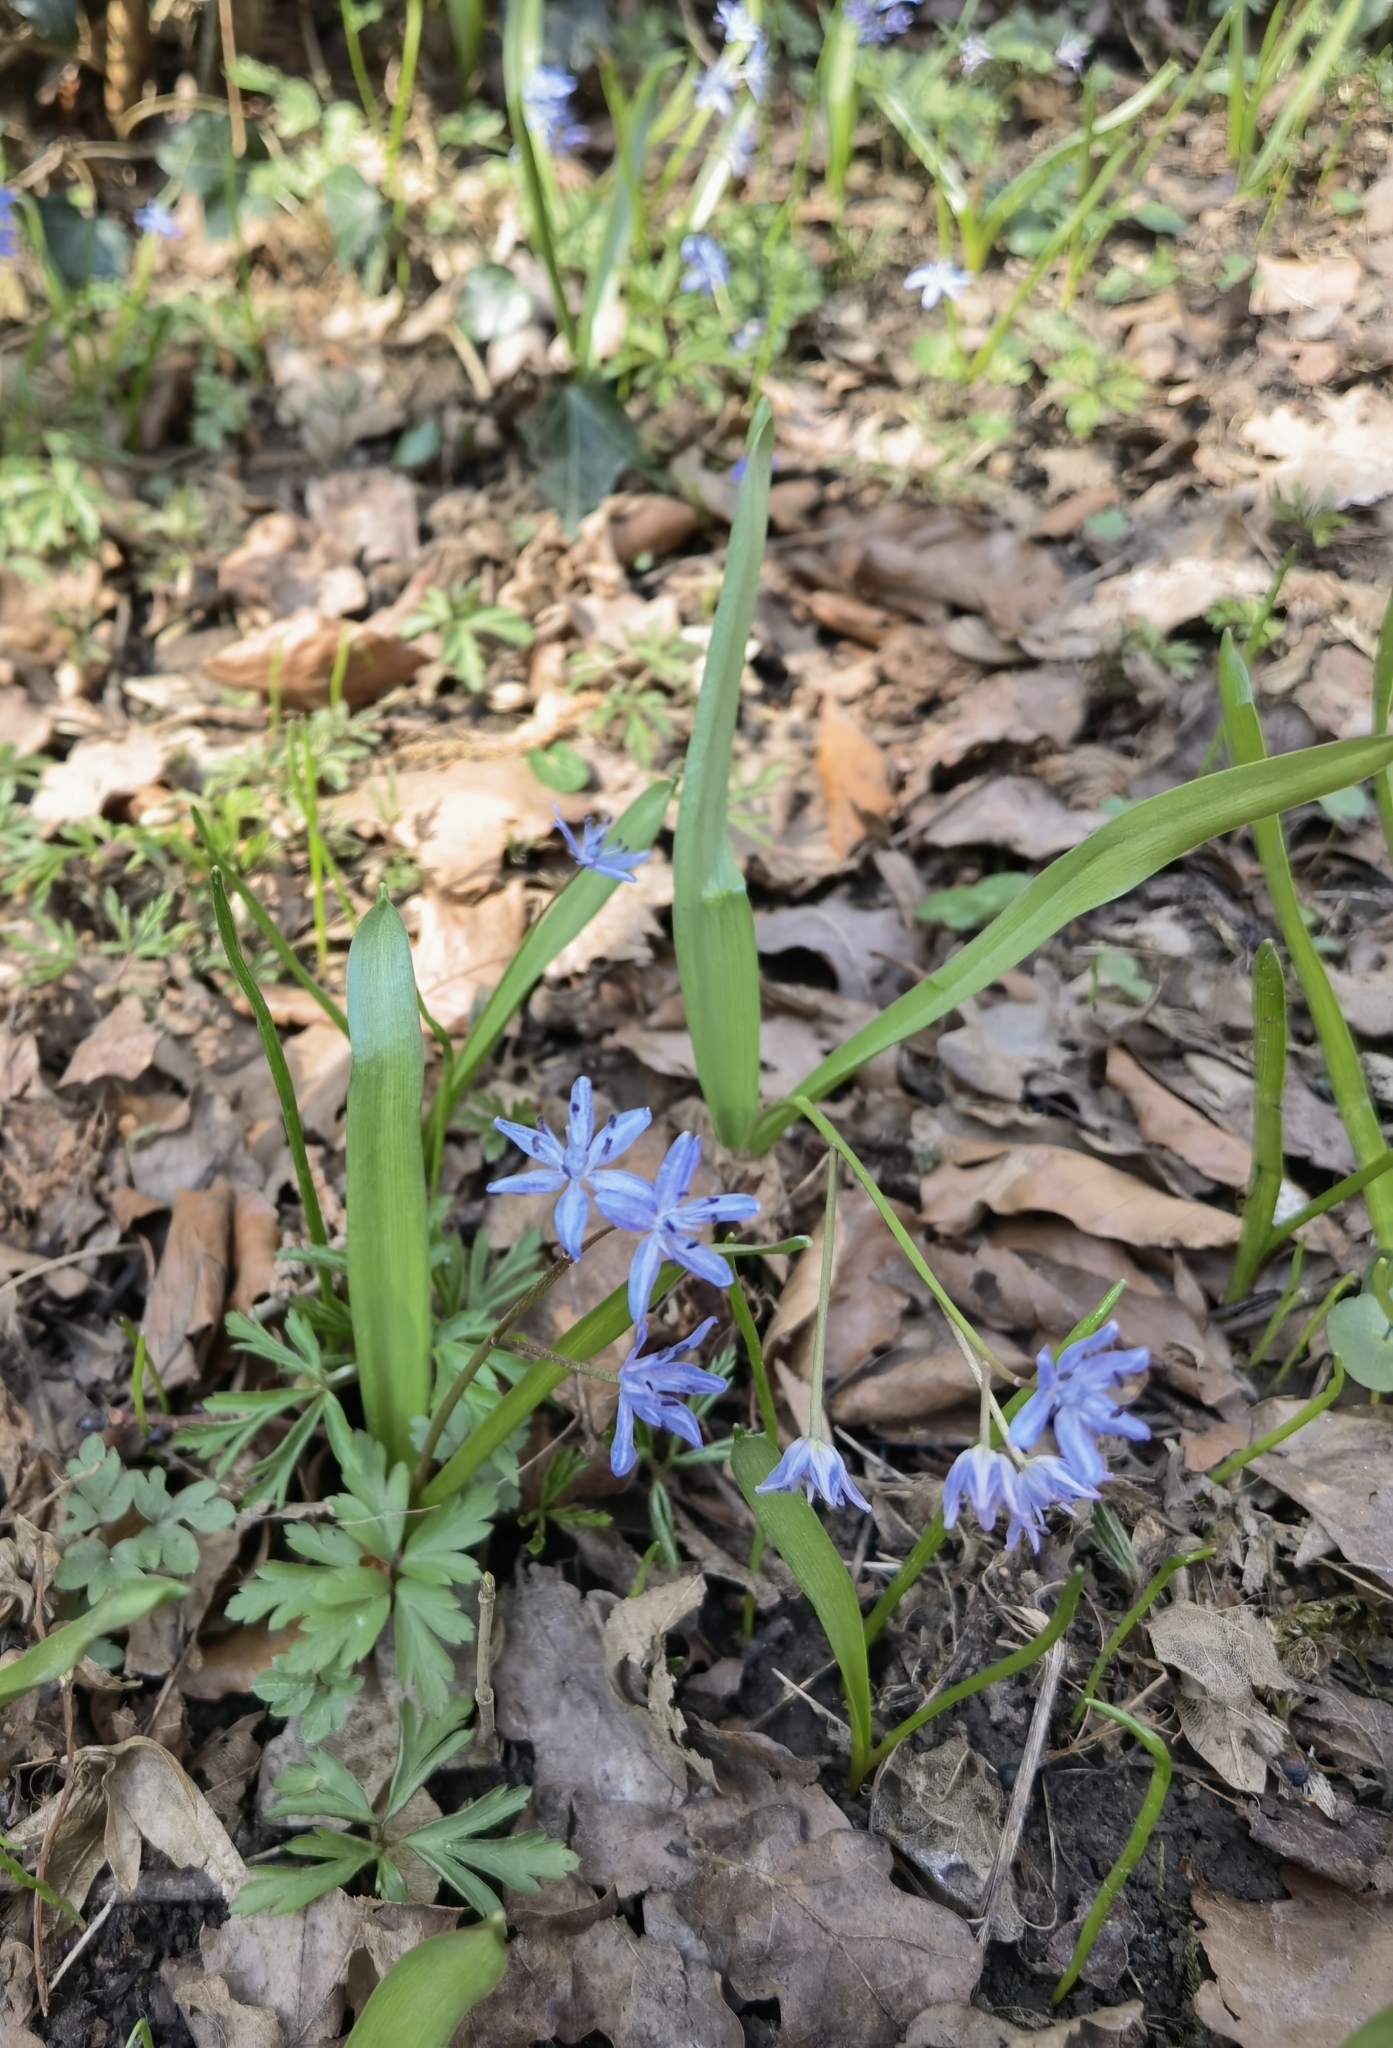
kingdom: Plantae
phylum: Tracheophyta
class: Liliopsida
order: Asparagales
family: Asparagaceae
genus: Scilla
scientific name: Scilla bifolia
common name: Alpine squill
